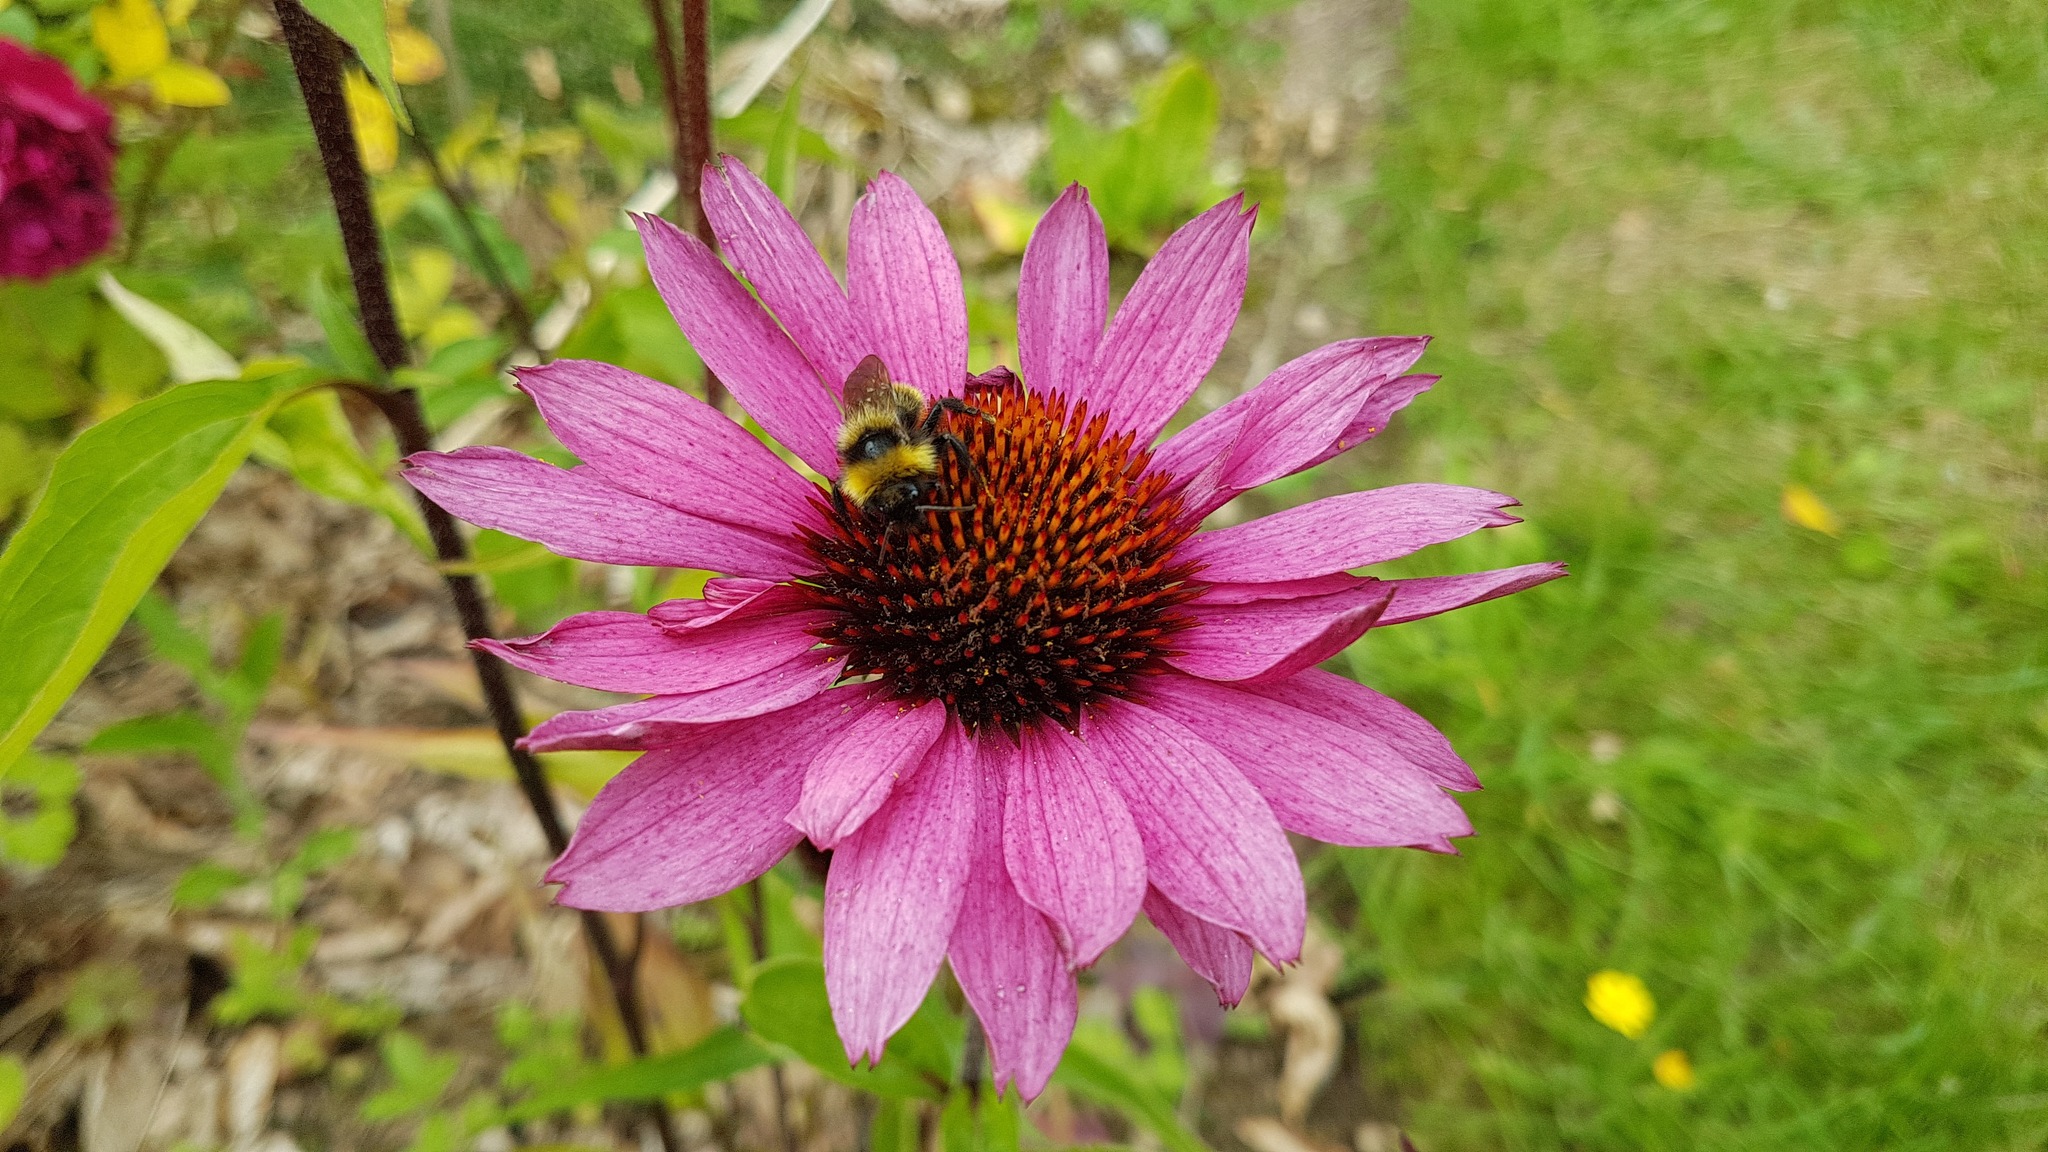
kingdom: Animalia
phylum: Arthropoda
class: Insecta
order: Hymenoptera
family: Apidae
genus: Bombus
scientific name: Bombus campestris
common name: Field cuckoo-bee
